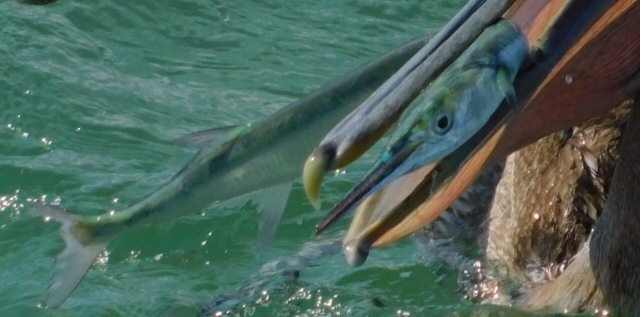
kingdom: Animalia
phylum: Chordata
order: Beloniformes
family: Belonidae
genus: Tylosurus
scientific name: Tylosurus crocodilus
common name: Houndfish
